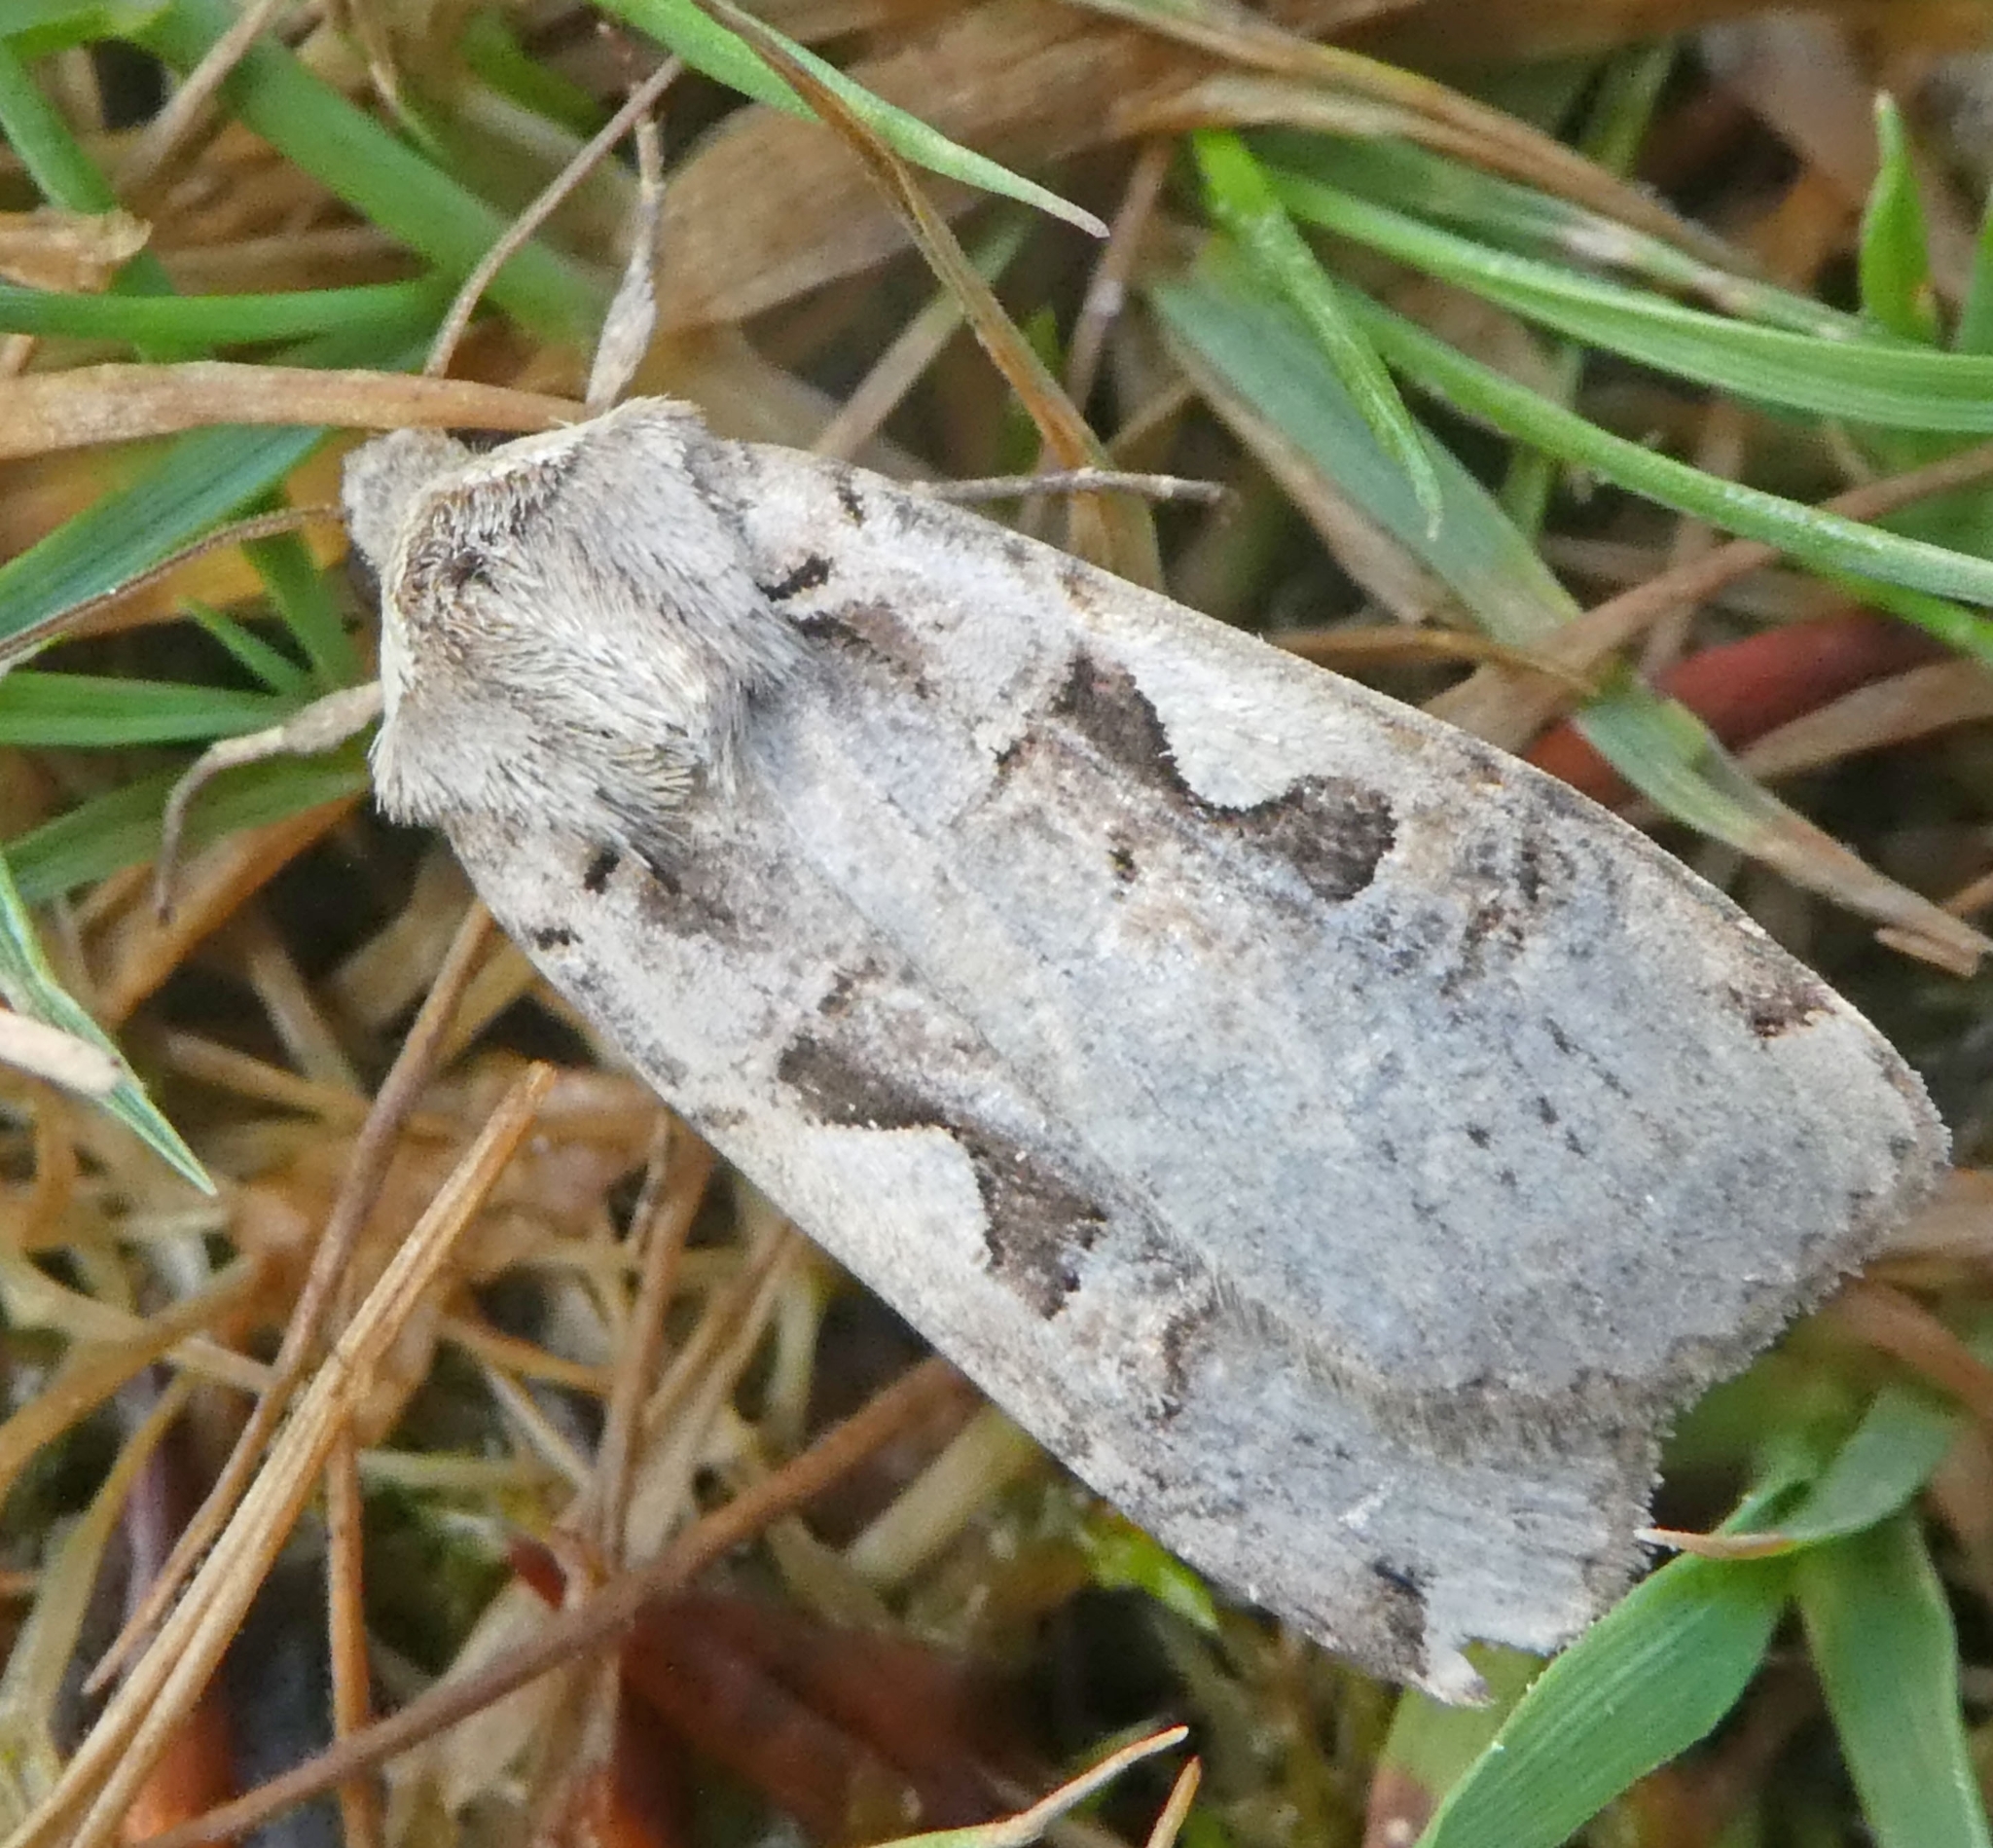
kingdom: Animalia
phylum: Arthropoda
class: Insecta
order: Lepidoptera
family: Noctuidae
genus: Xestia
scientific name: Xestia c-nigrum
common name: Setaceous hebrew character
